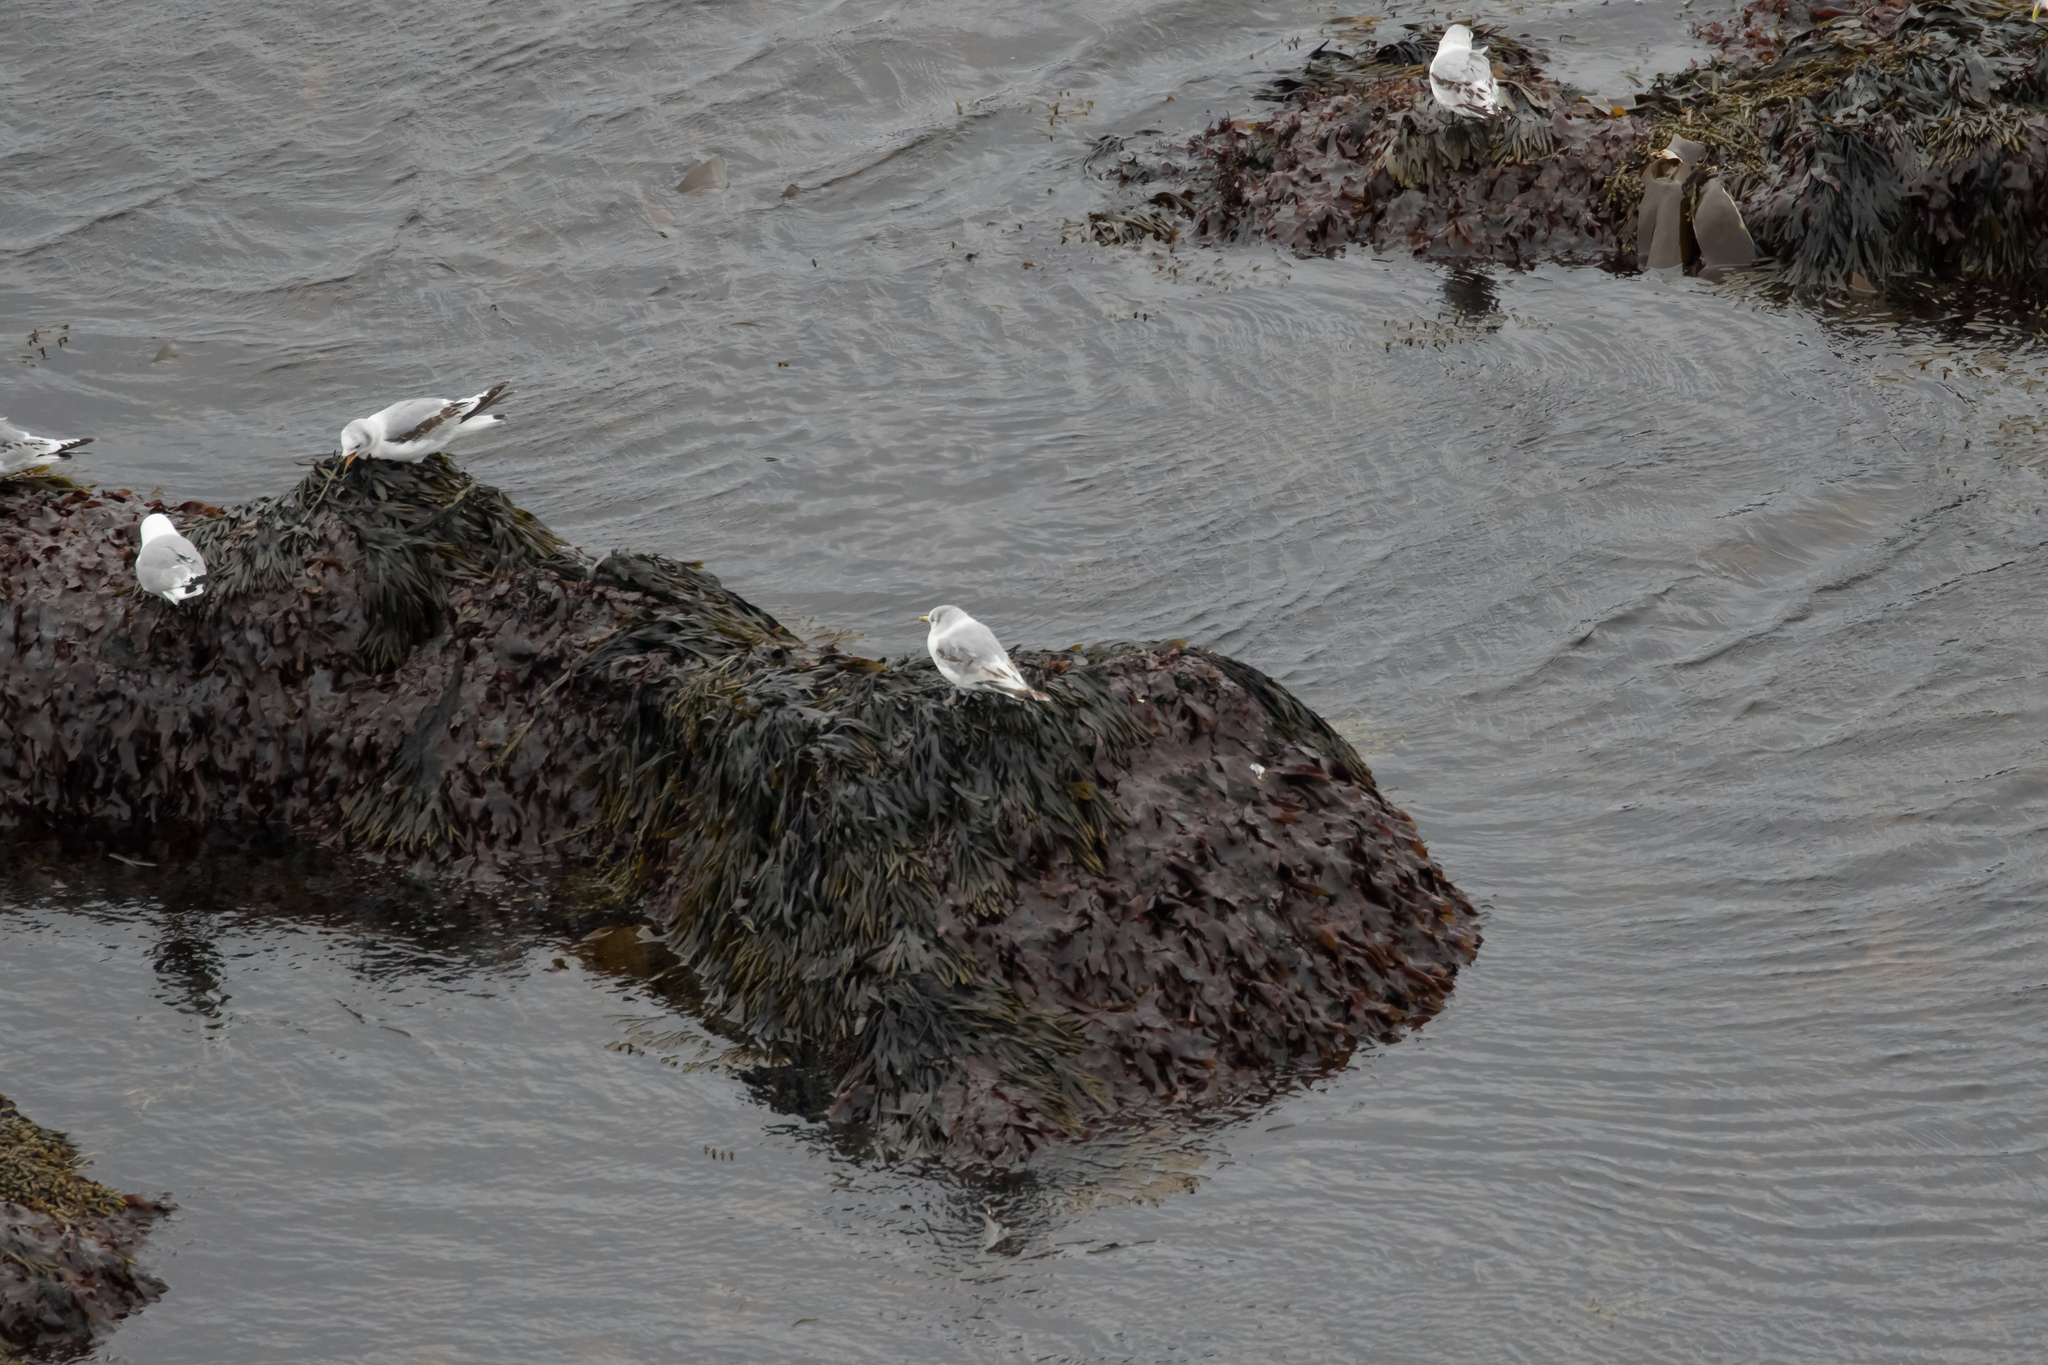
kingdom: Animalia
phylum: Chordata
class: Aves
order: Charadriiformes
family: Laridae
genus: Rissa
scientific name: Rissa tridactyla
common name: Black-legged kittiwake
